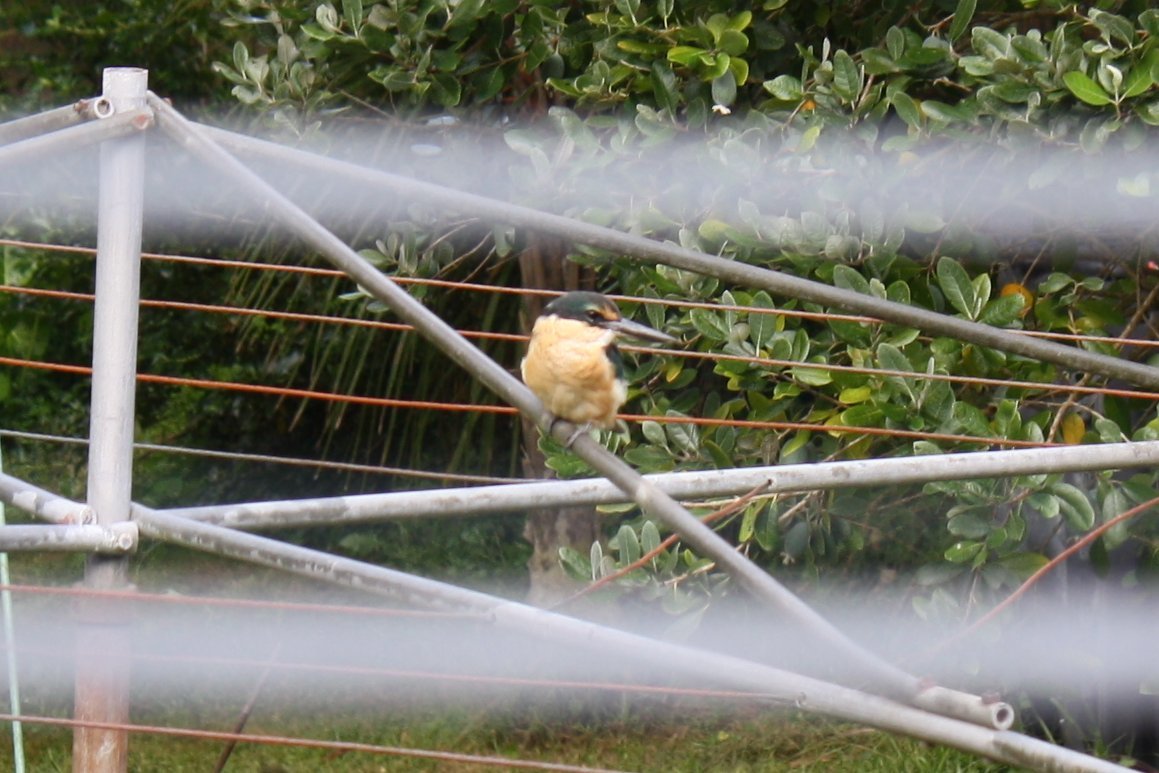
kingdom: Animalia
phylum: Chordata
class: Aves
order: Coraciiformes
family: Alcedinidae
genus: Todiramphus
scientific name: Todiramphus sanctus
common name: Sacred kingfisher
